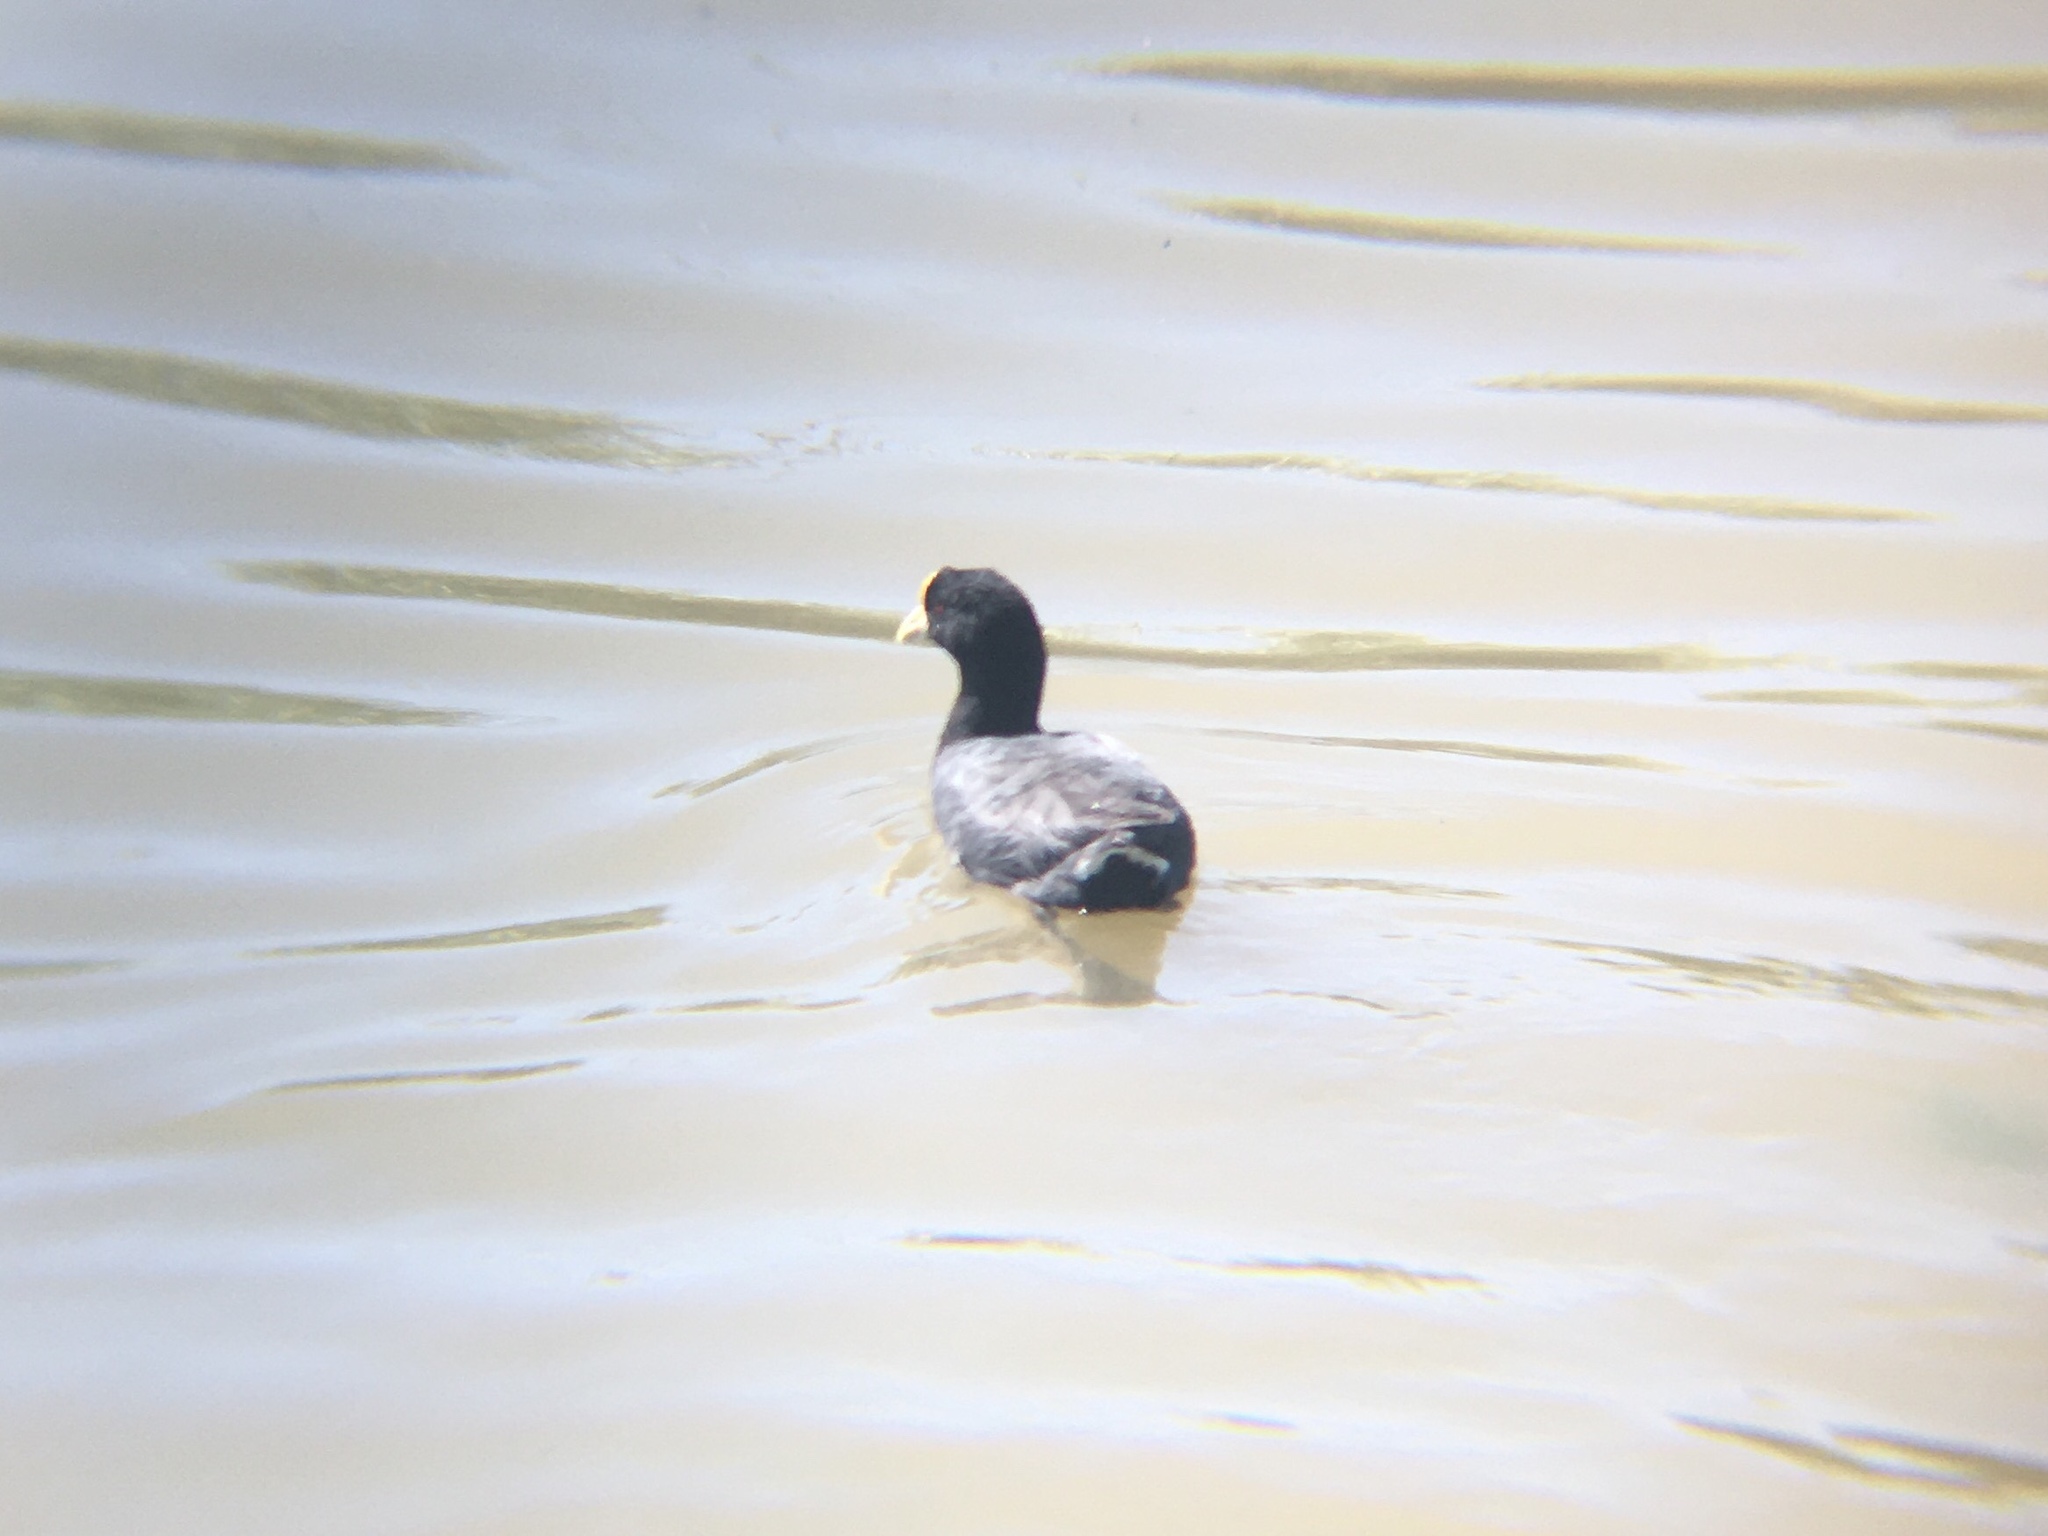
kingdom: Animalia
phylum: Chordata
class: Aves
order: Gruiformes
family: Rallidae
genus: Fulica
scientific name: Fulica leucoptera
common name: White-winged coot
